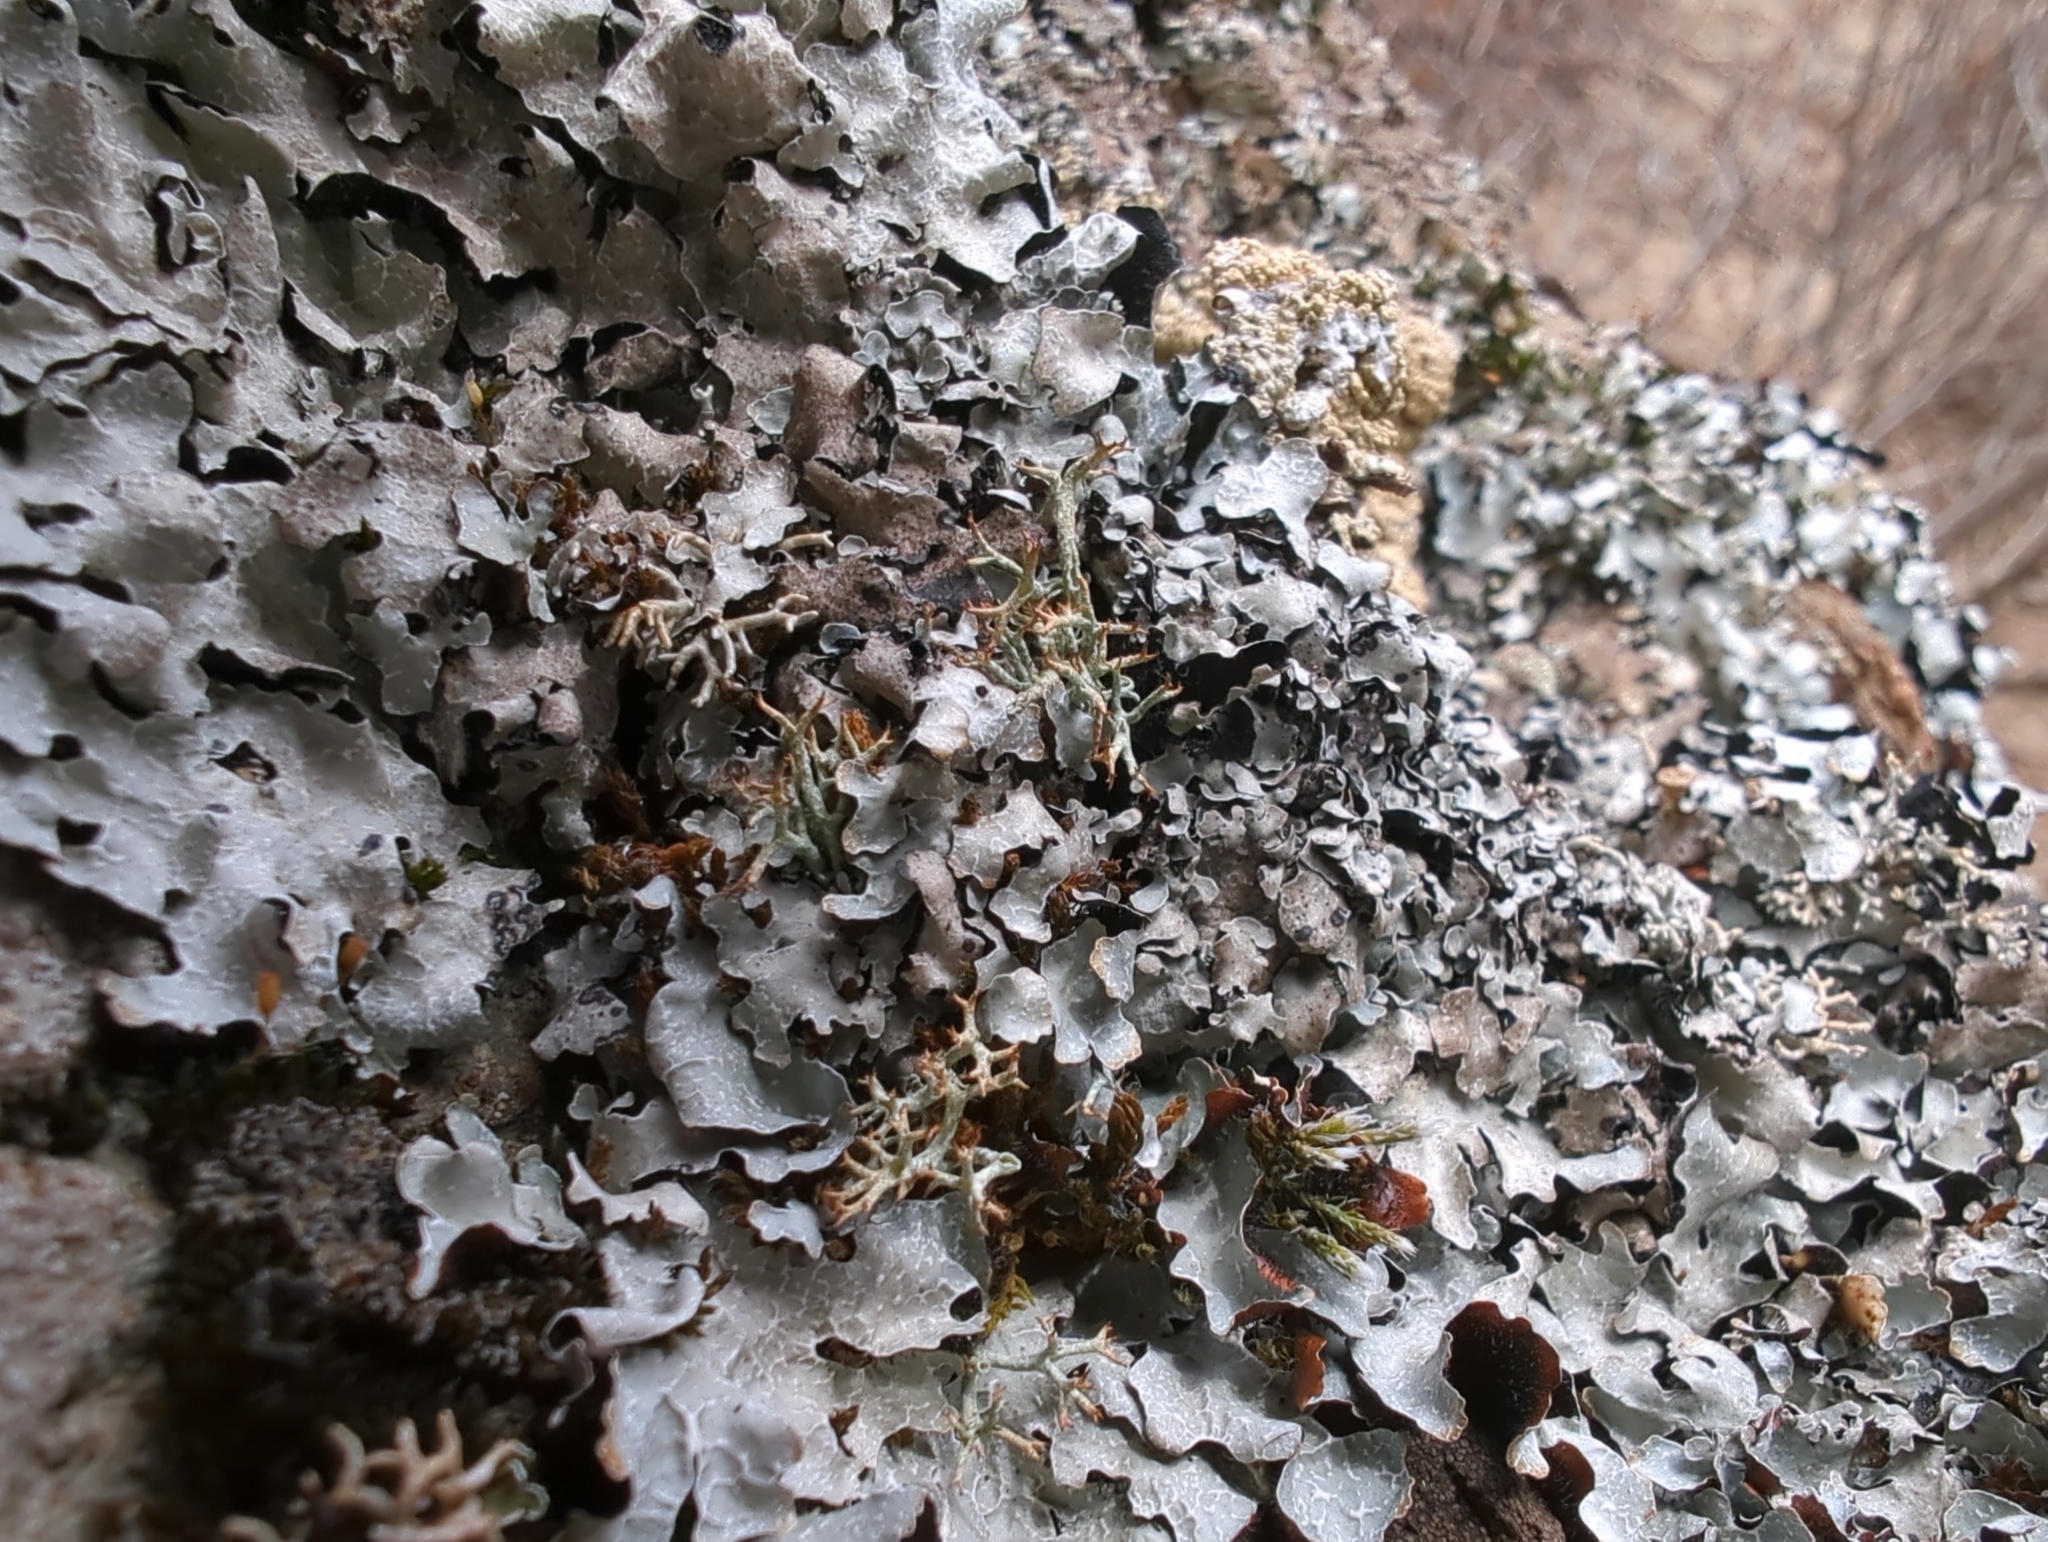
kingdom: Fungi
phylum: Ascomycota
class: Lecanoromycetes
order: Lecanorales
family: Cladoniaceae
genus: Cladonia
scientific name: Cladonia amaurocraea
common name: Quill lichen
